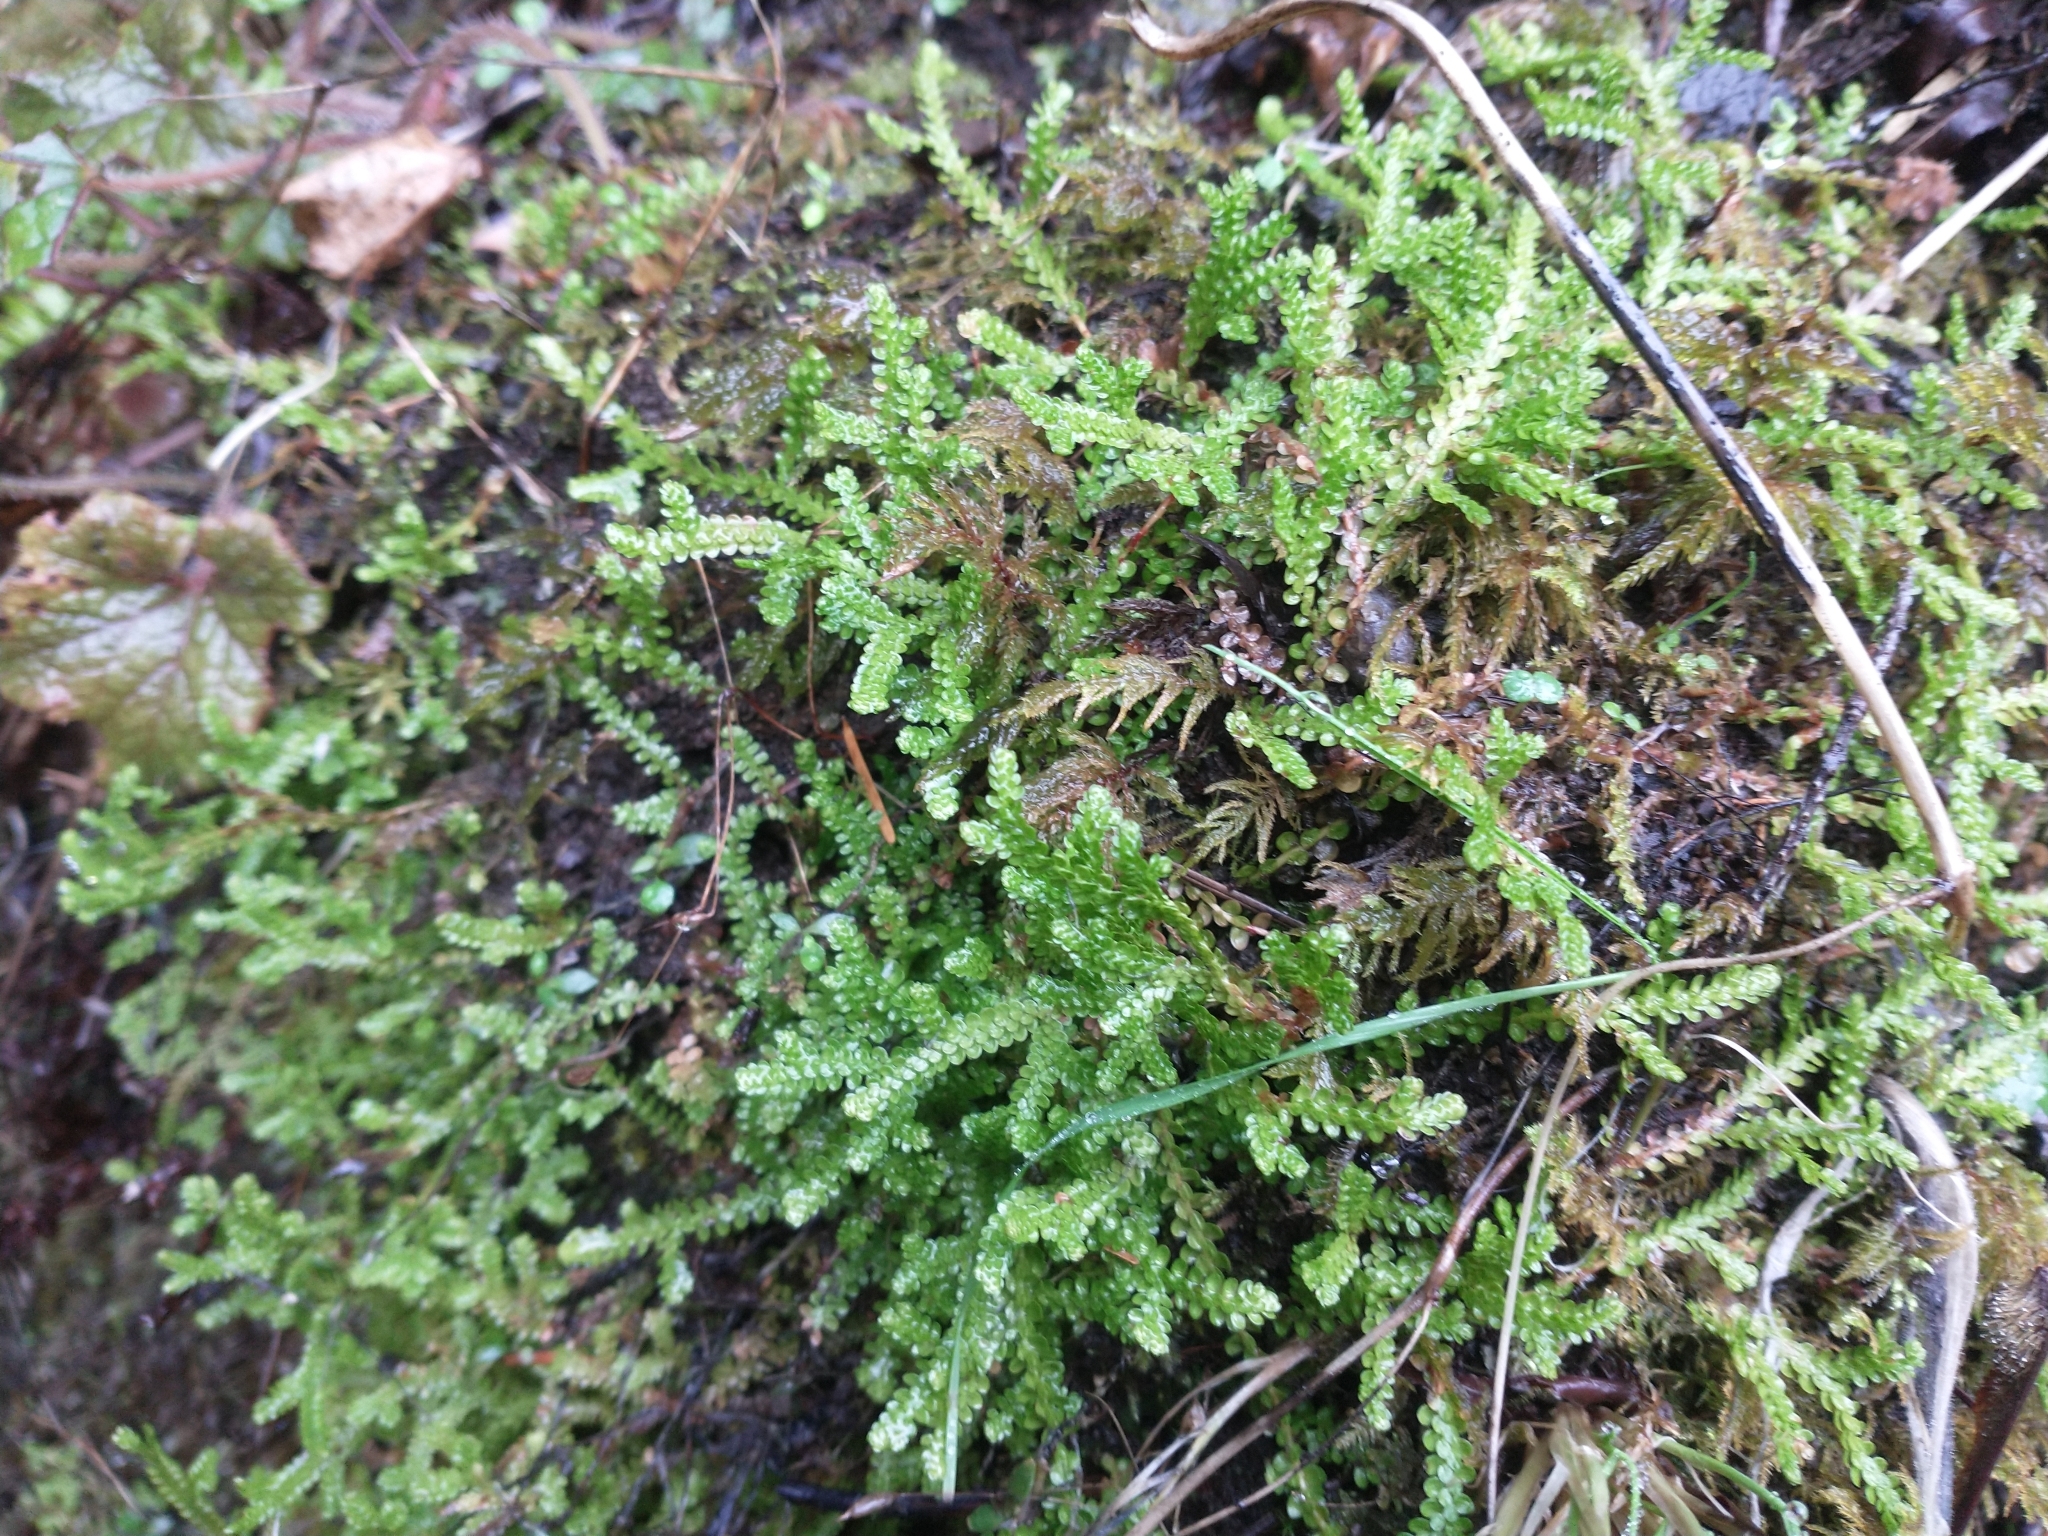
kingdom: Plantae
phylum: Tracheophyta
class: Lycopodiopsida
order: Selaginellales
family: Selaginellaceae
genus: Selaginella
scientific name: Selaginella douglasii
